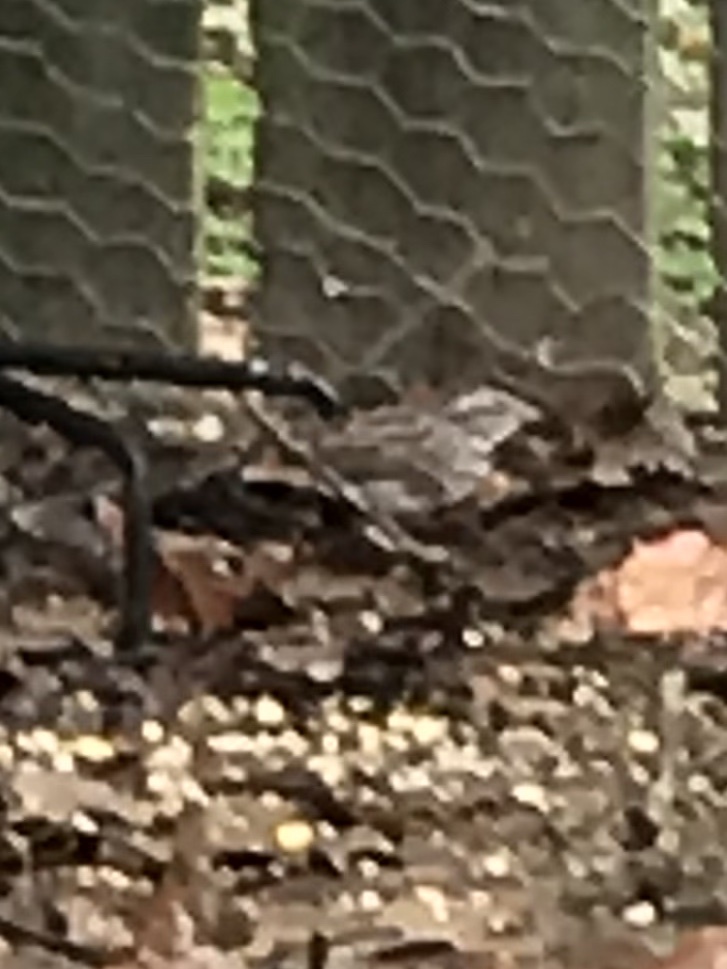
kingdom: Animalia
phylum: Chordata
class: Aves
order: Passeriformes
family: Passerellidae
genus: Melospiza
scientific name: Melospiza melodia
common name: Song sparrow
